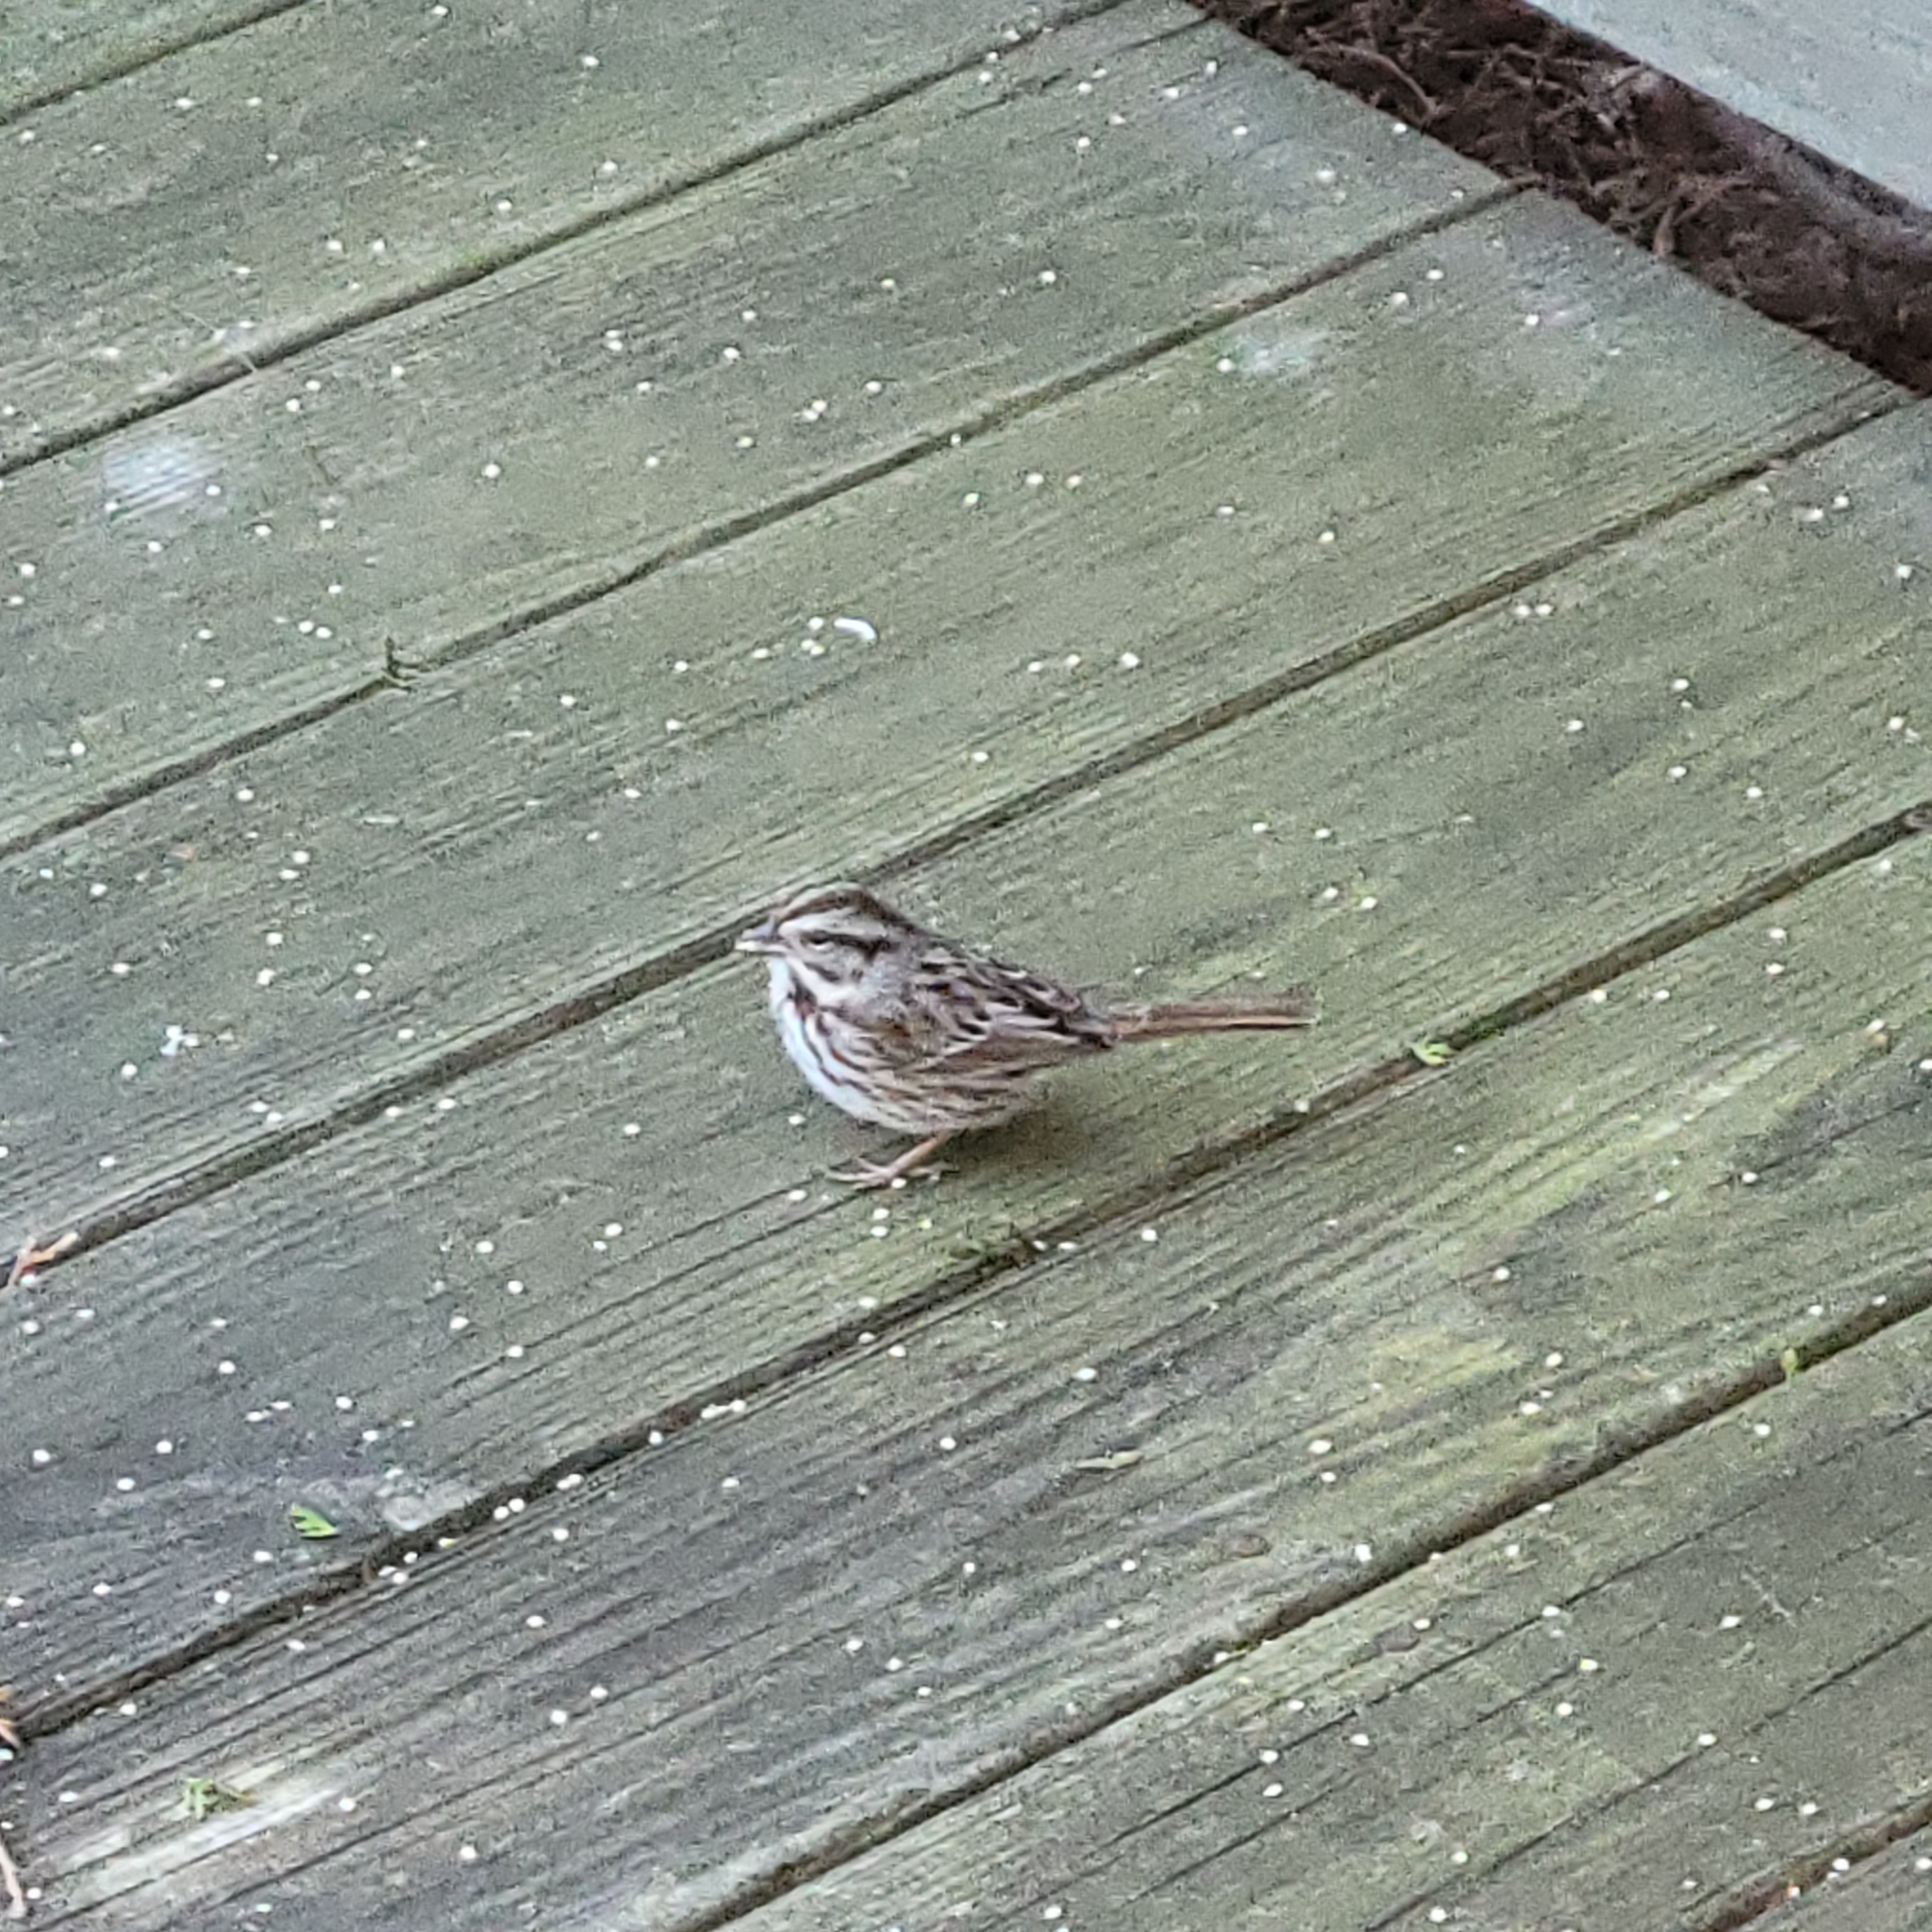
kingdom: Animalia
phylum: Chordata
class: Aves
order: Passeriformes
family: Passerellidae
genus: Melospiza
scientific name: Melospiza melodia
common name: Song sparrow
